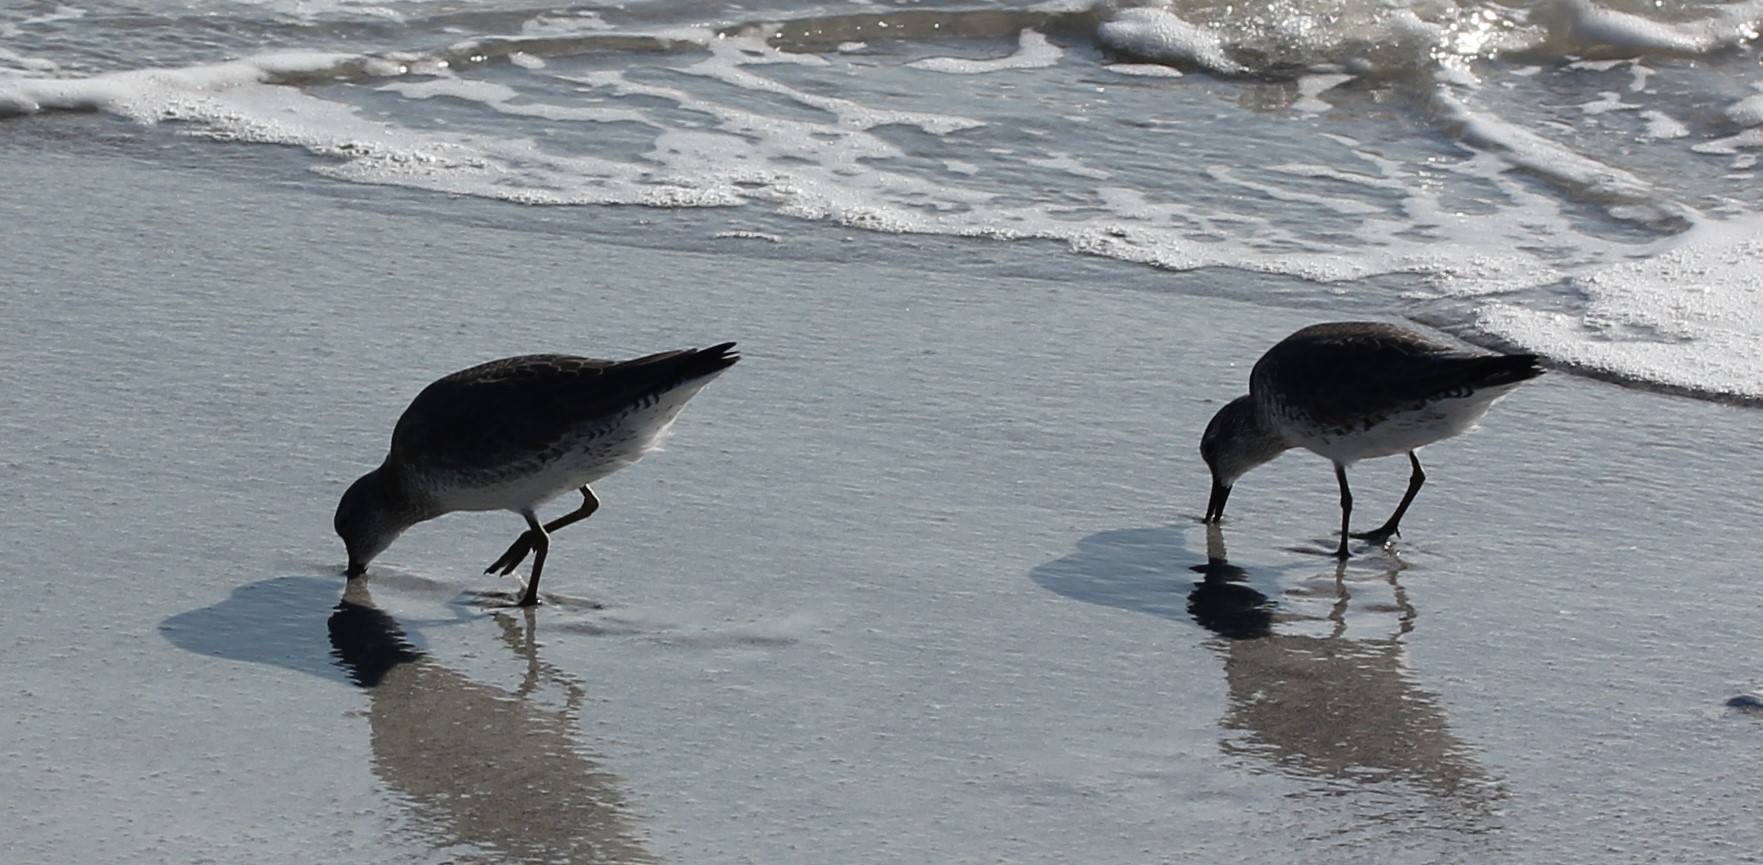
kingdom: Animalia
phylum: Chordata
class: Aves
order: Charadriiformes
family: Scolopacidae
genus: Calidris
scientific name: Calidris canutus
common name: Red knot
